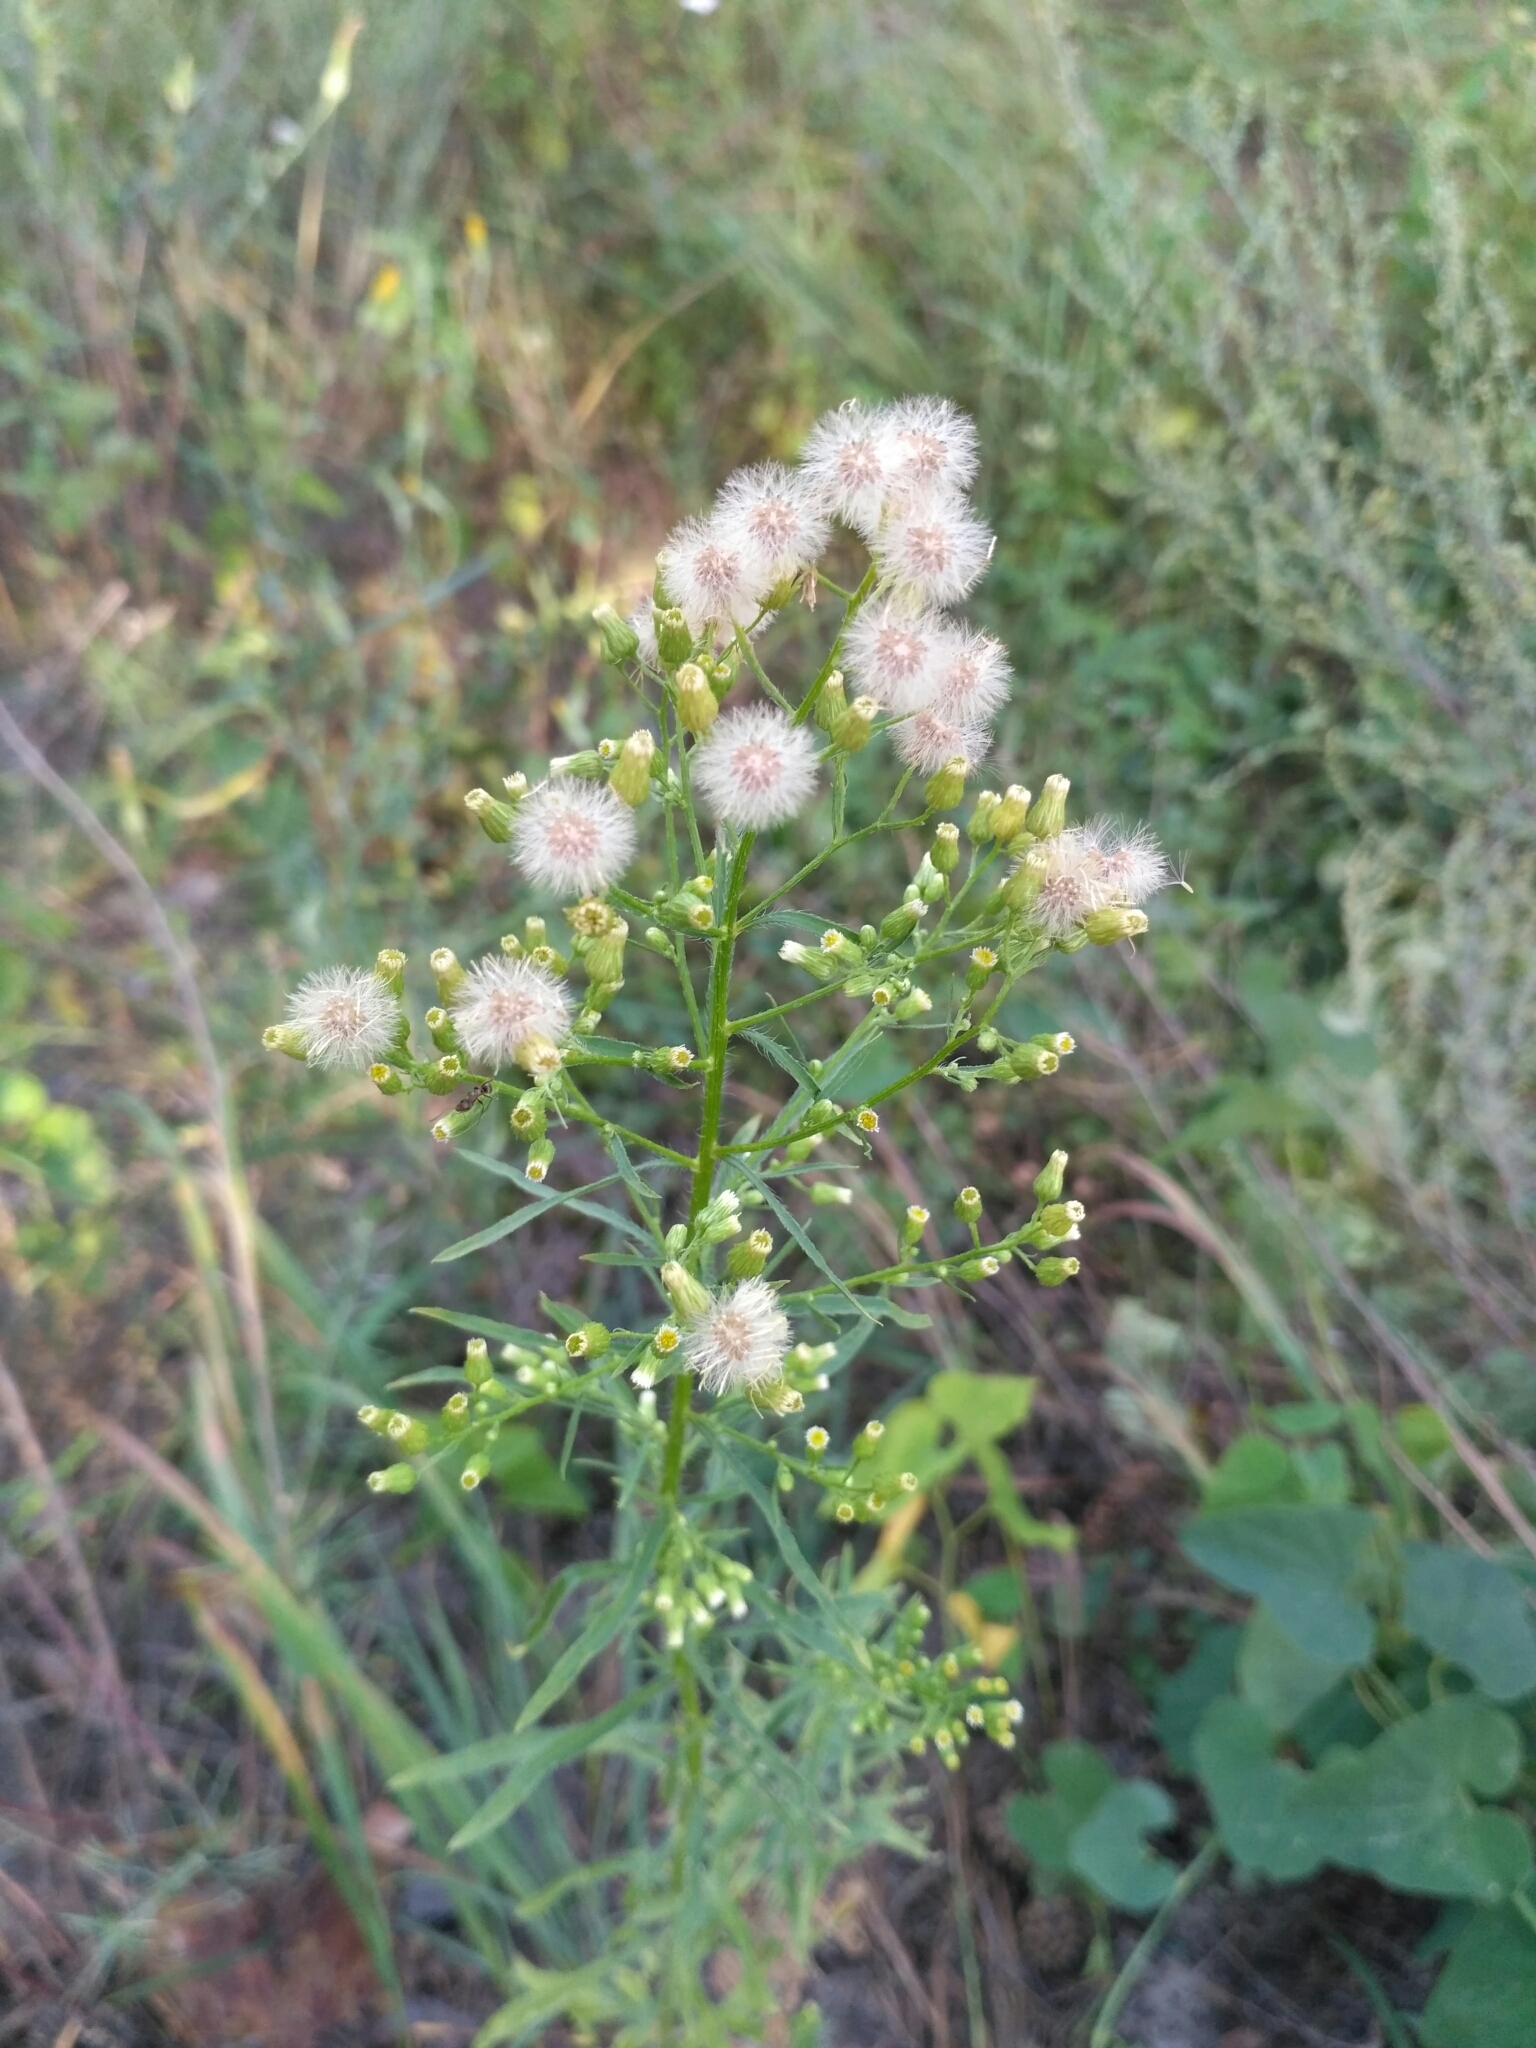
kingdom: Plantae
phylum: Tracheophyta
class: Magnoliopsida
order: Asterales
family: Asteraceae
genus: Erigeron
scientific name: Erigeron canadensis
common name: Canadian fleabane
